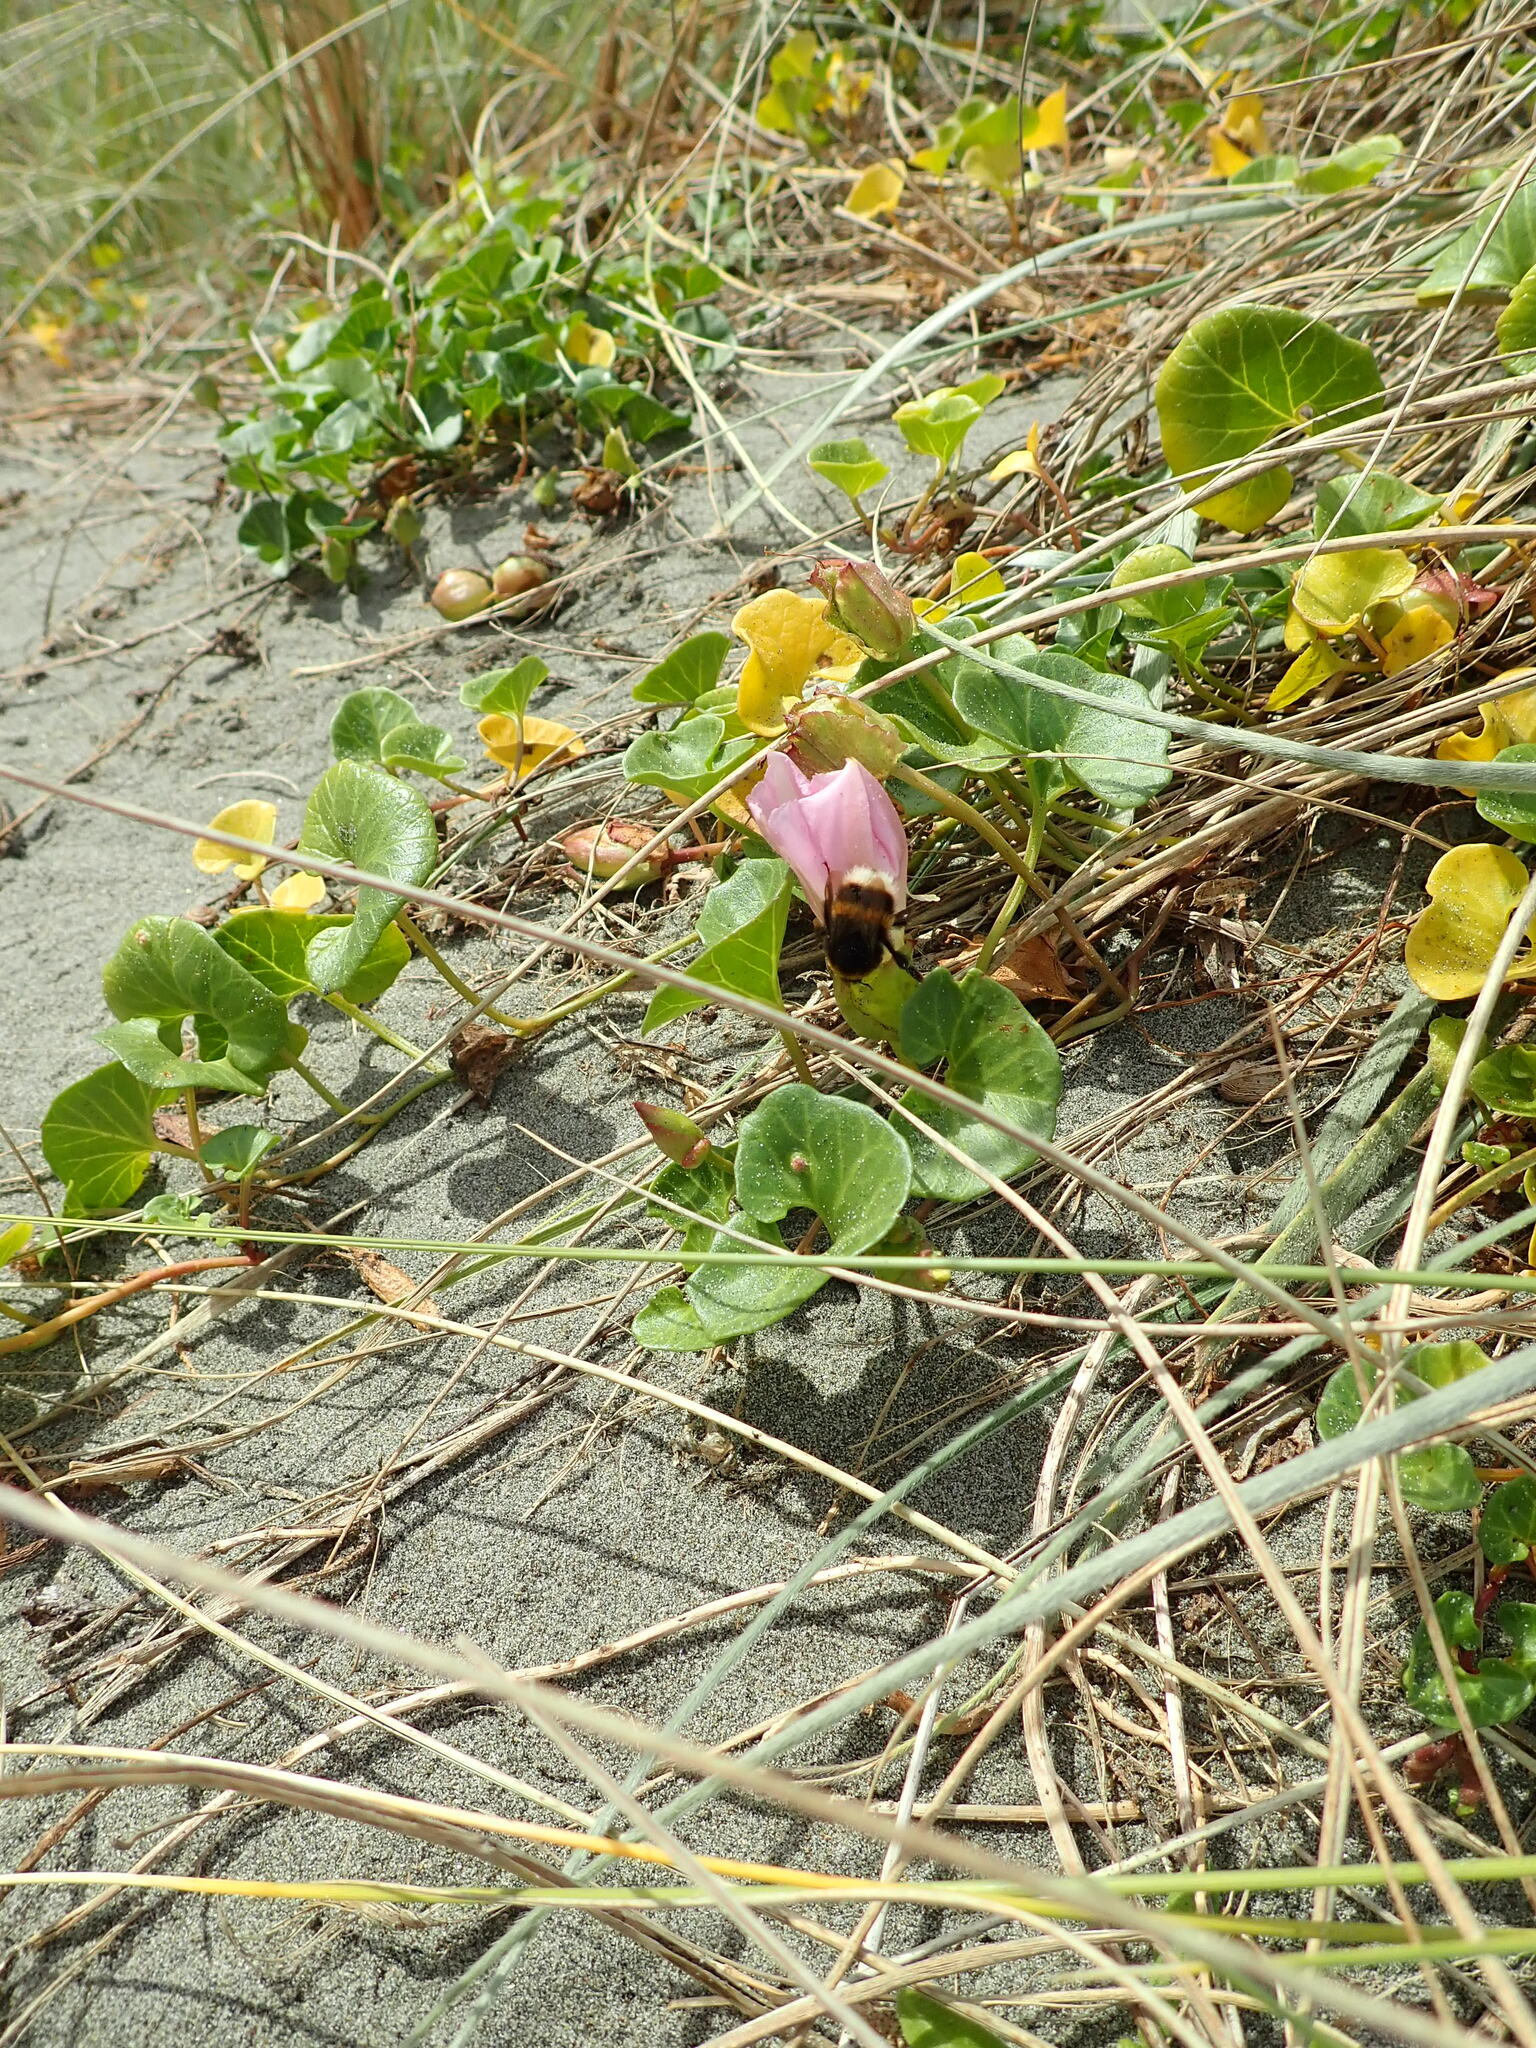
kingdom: Plantae
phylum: Tracheophyta
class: Magnoliopsida
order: Solanales
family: Convolvulaceae
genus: Calystegia
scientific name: Calystegia soldanella
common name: Sea bindweed
